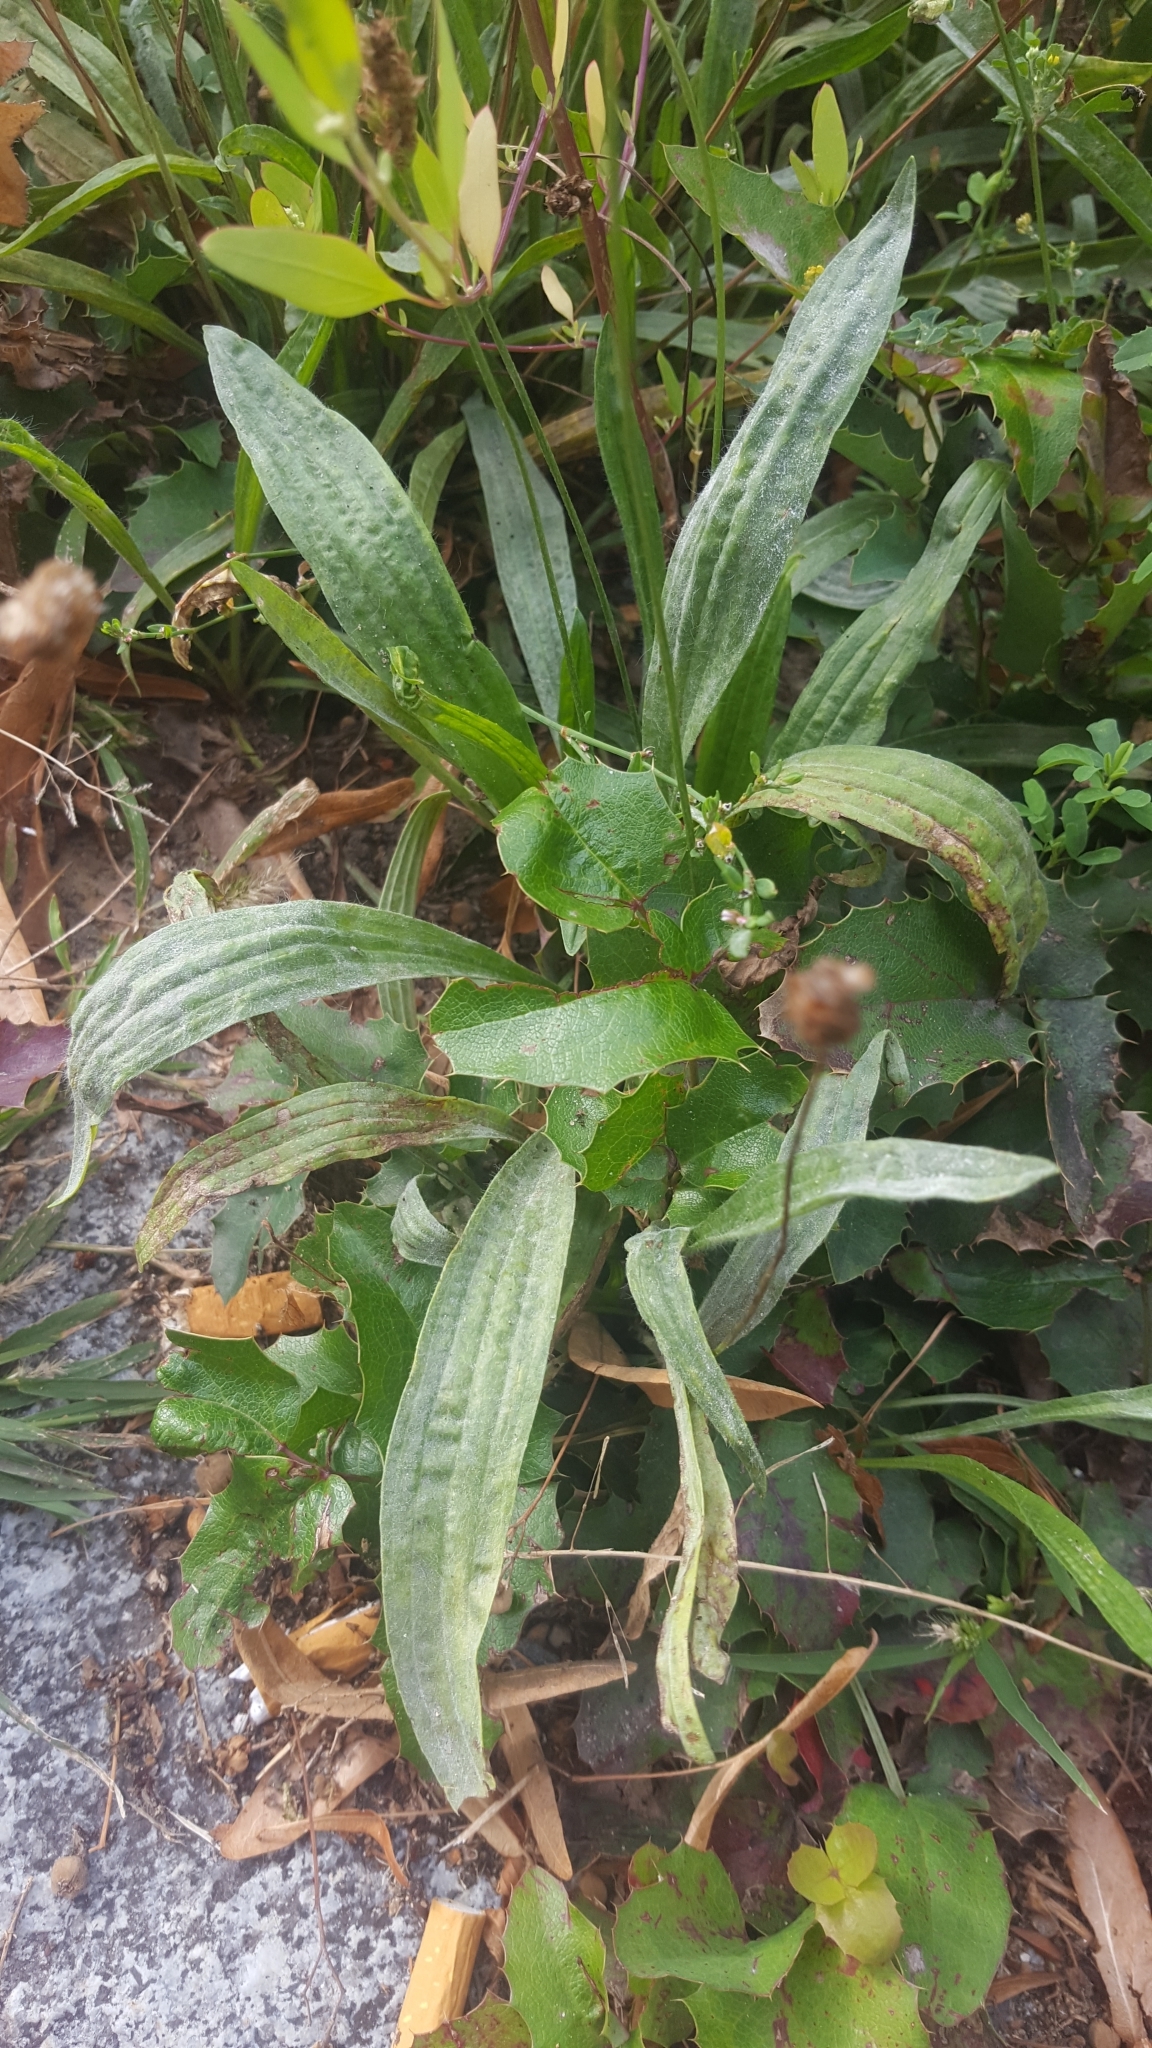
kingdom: Plantae
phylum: Tracheophyta
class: Magnoliopsida
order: Lamiales
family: Plantaginaceae
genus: Plantago
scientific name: Plantago lanceolata
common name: Ribwort plantain
